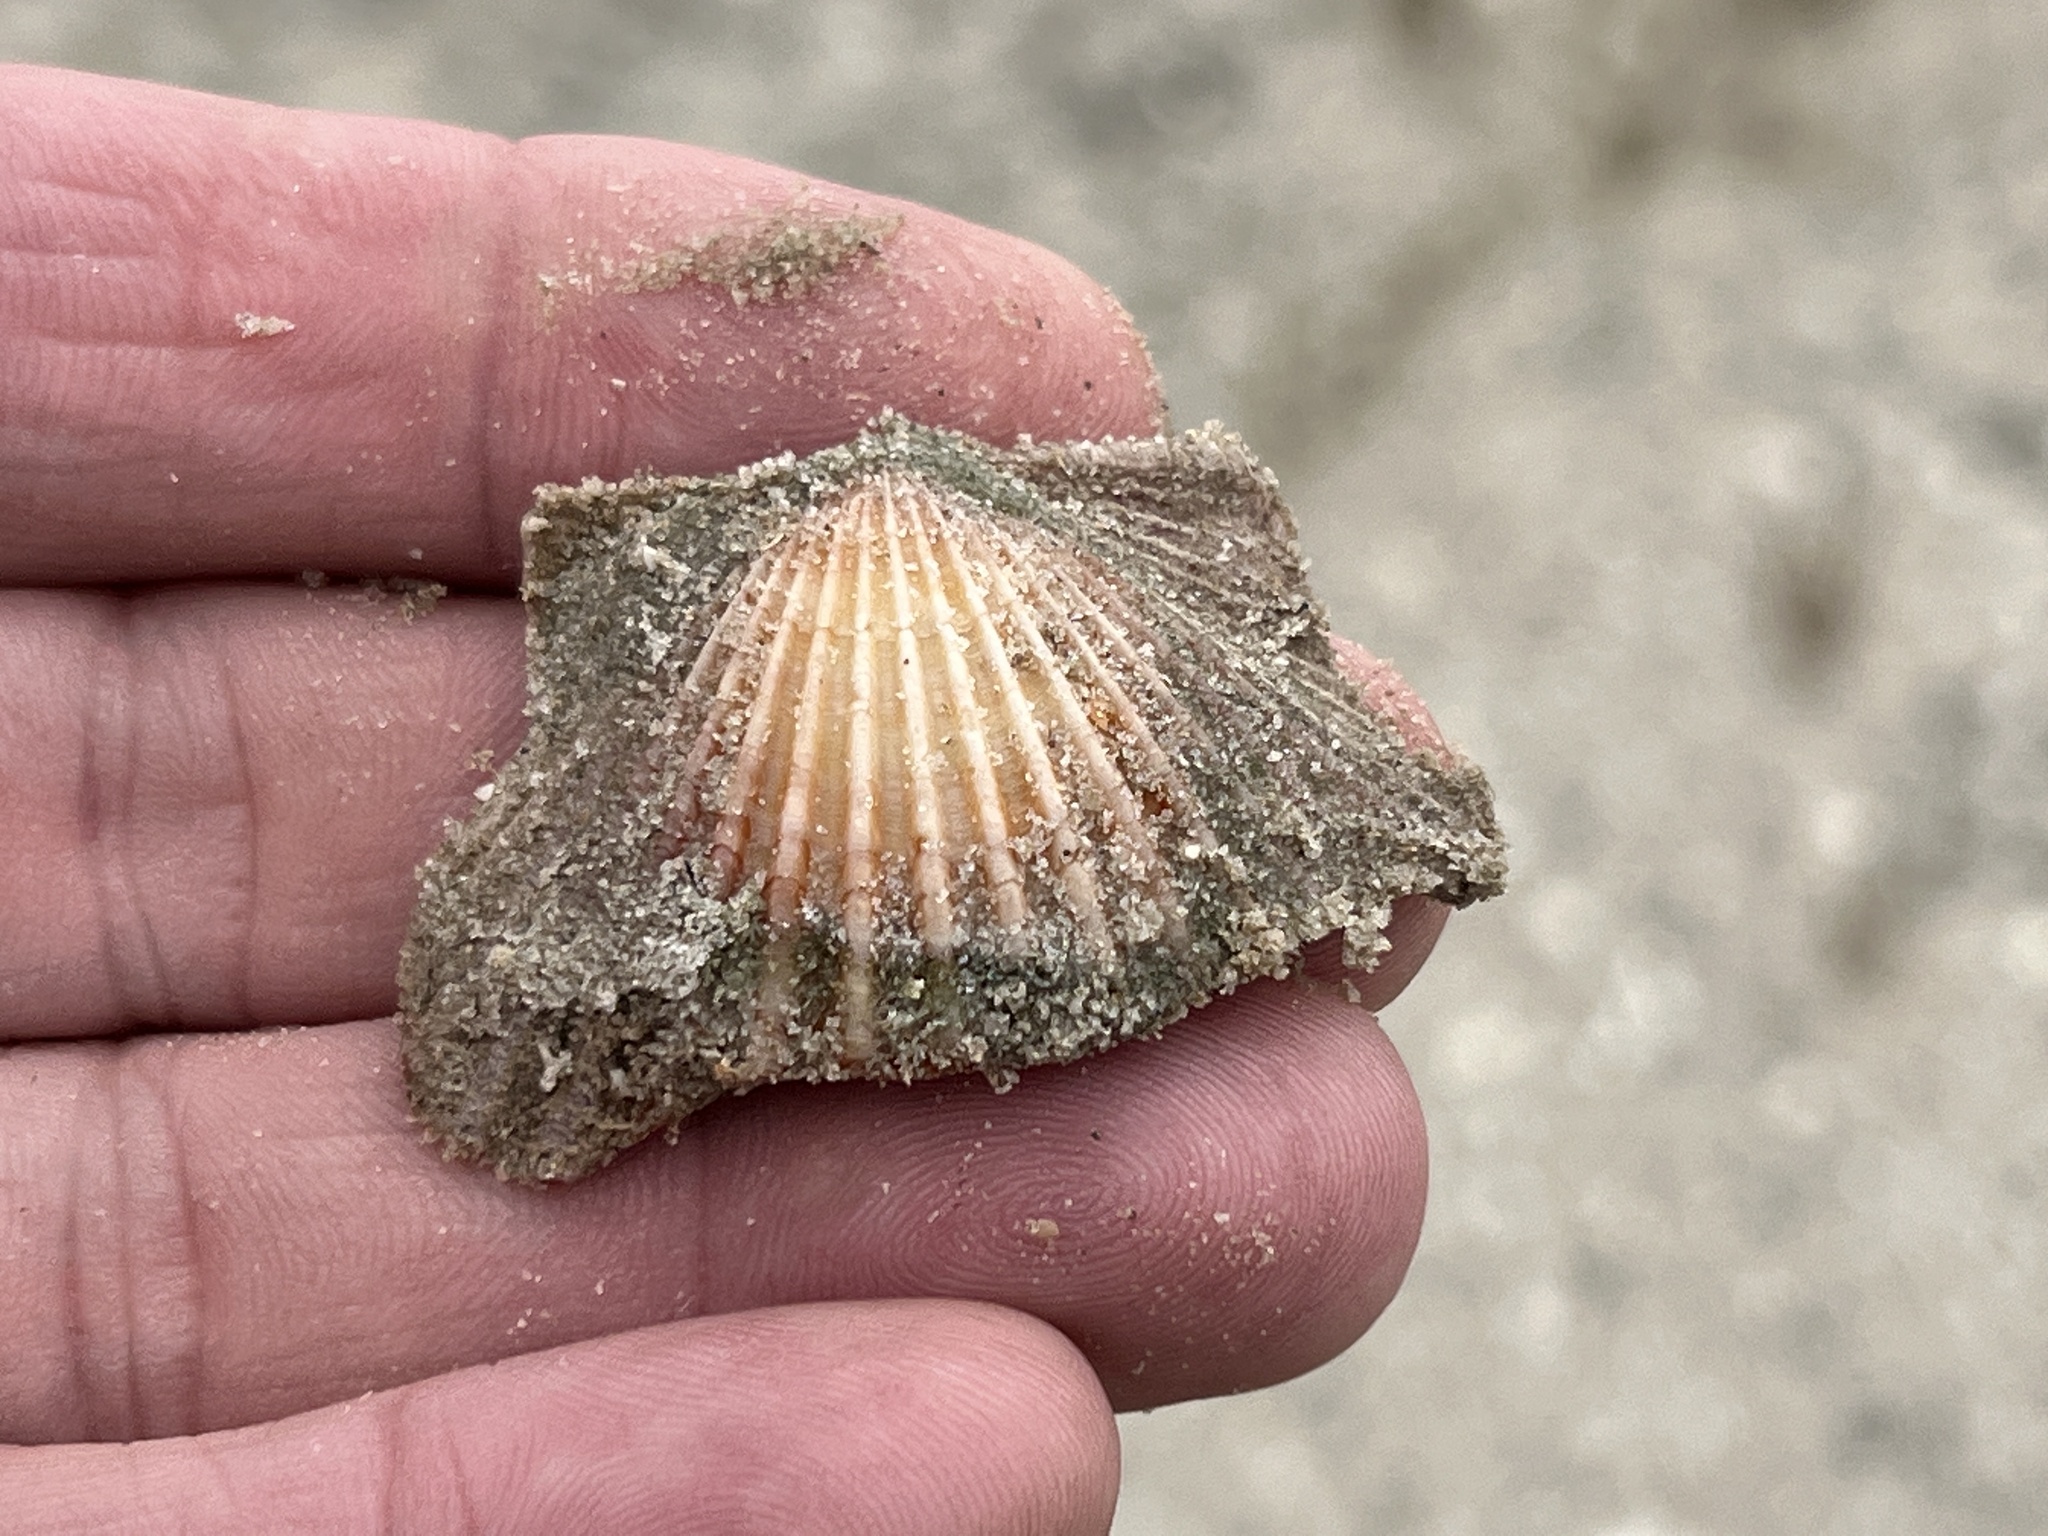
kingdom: Animalia
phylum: Mollusca
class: Bivalvia
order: Pectinida
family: Pectinidae
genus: Argopecten
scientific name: Argopecten irradians
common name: Atlantic bay scallop
